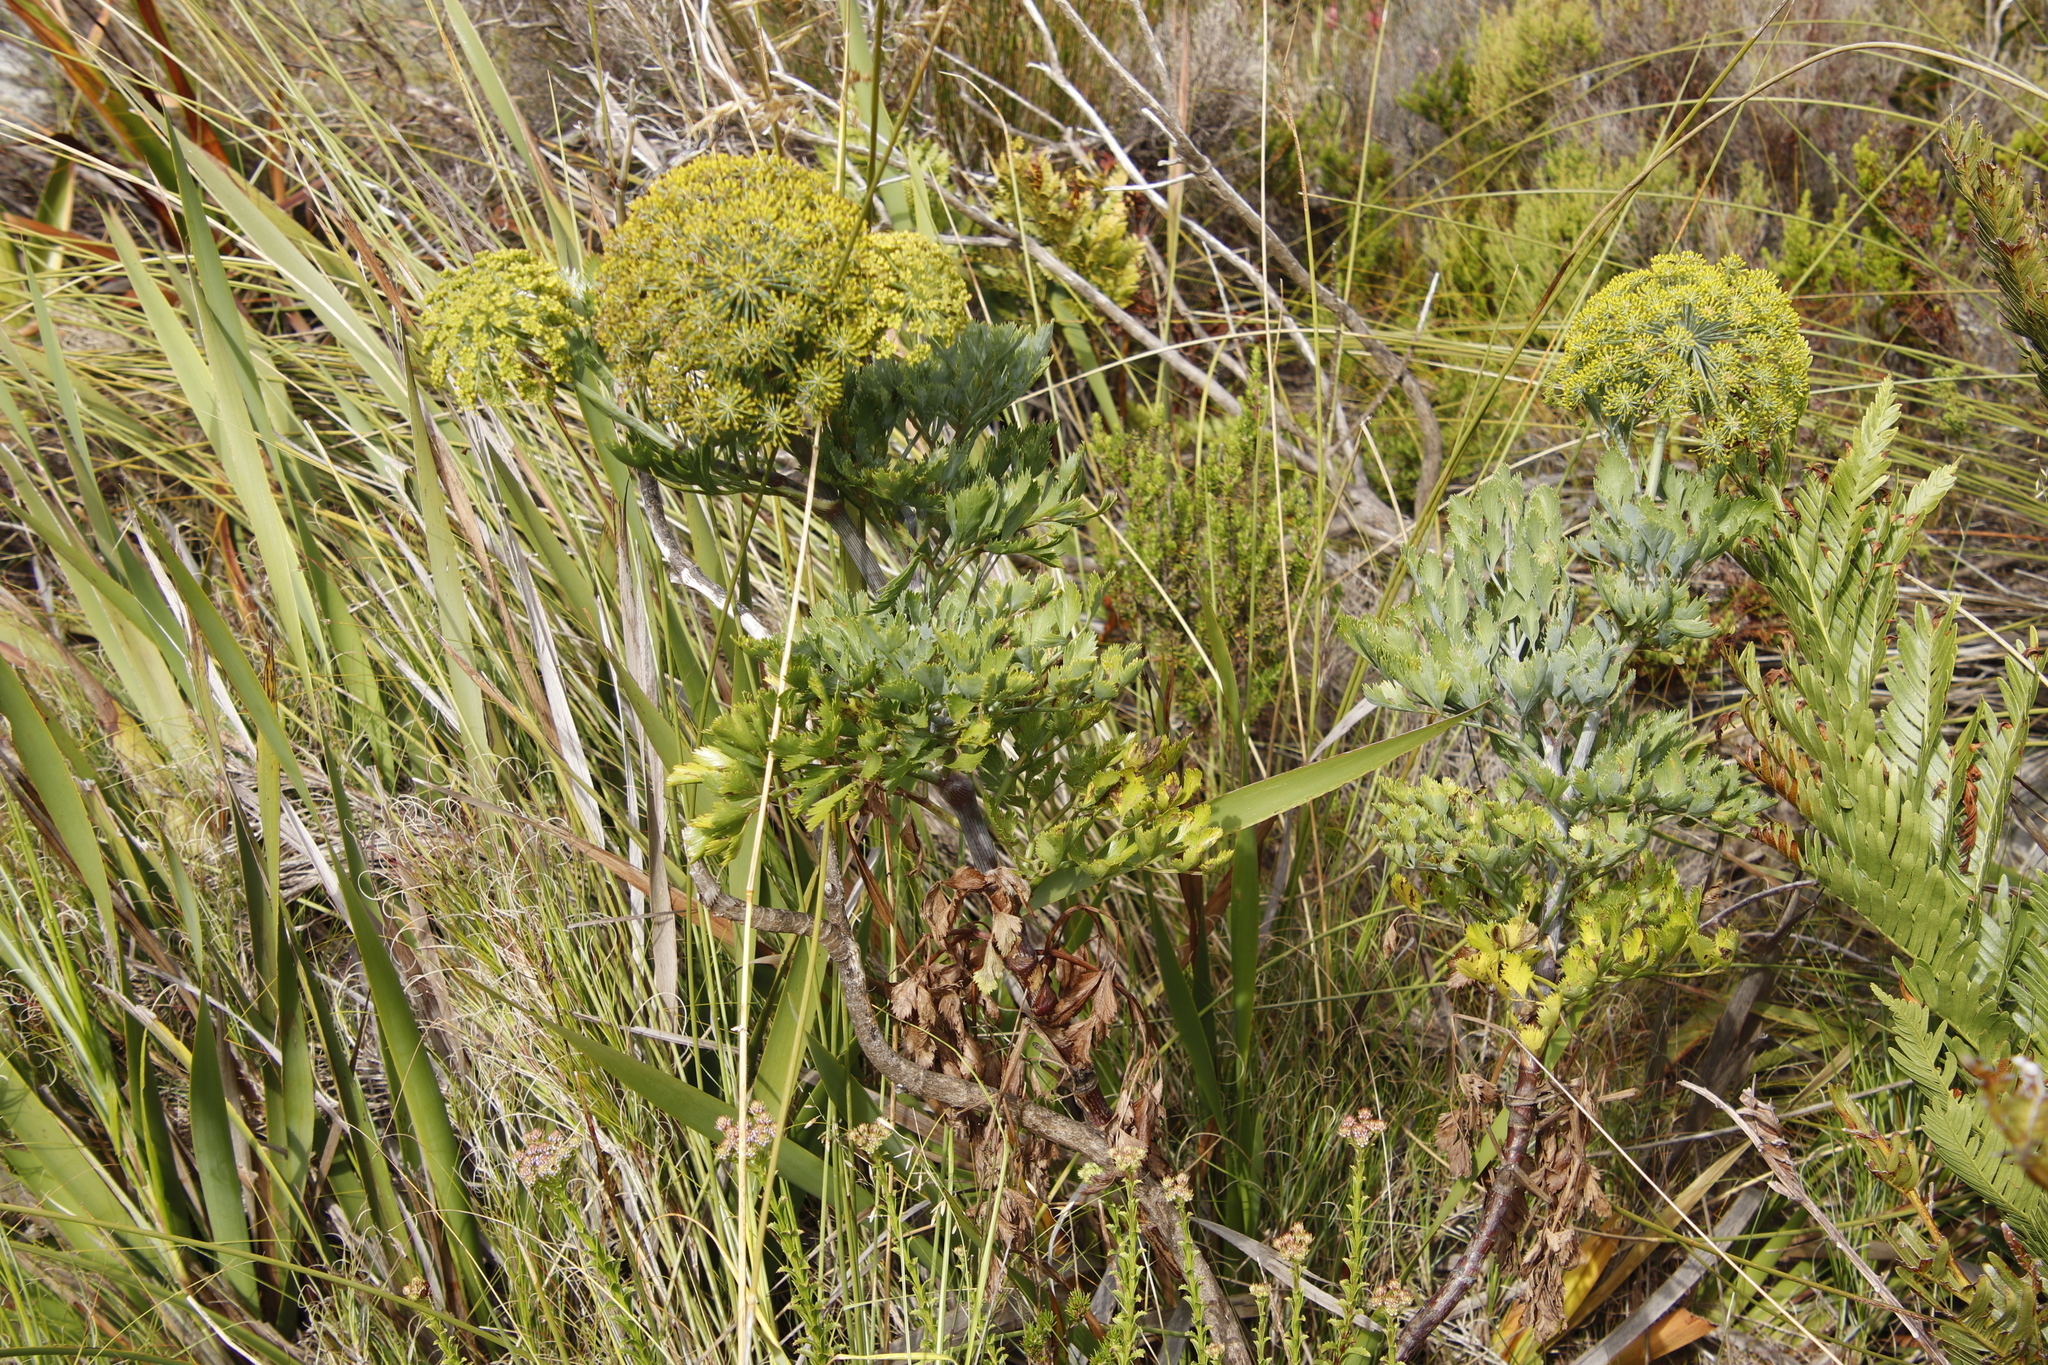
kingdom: Plantae
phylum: Tracheophyta
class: Magnoliopsida
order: Apiales
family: Apiaceae
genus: Notobubon
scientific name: Notobubon galbanum
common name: Blisterbush
